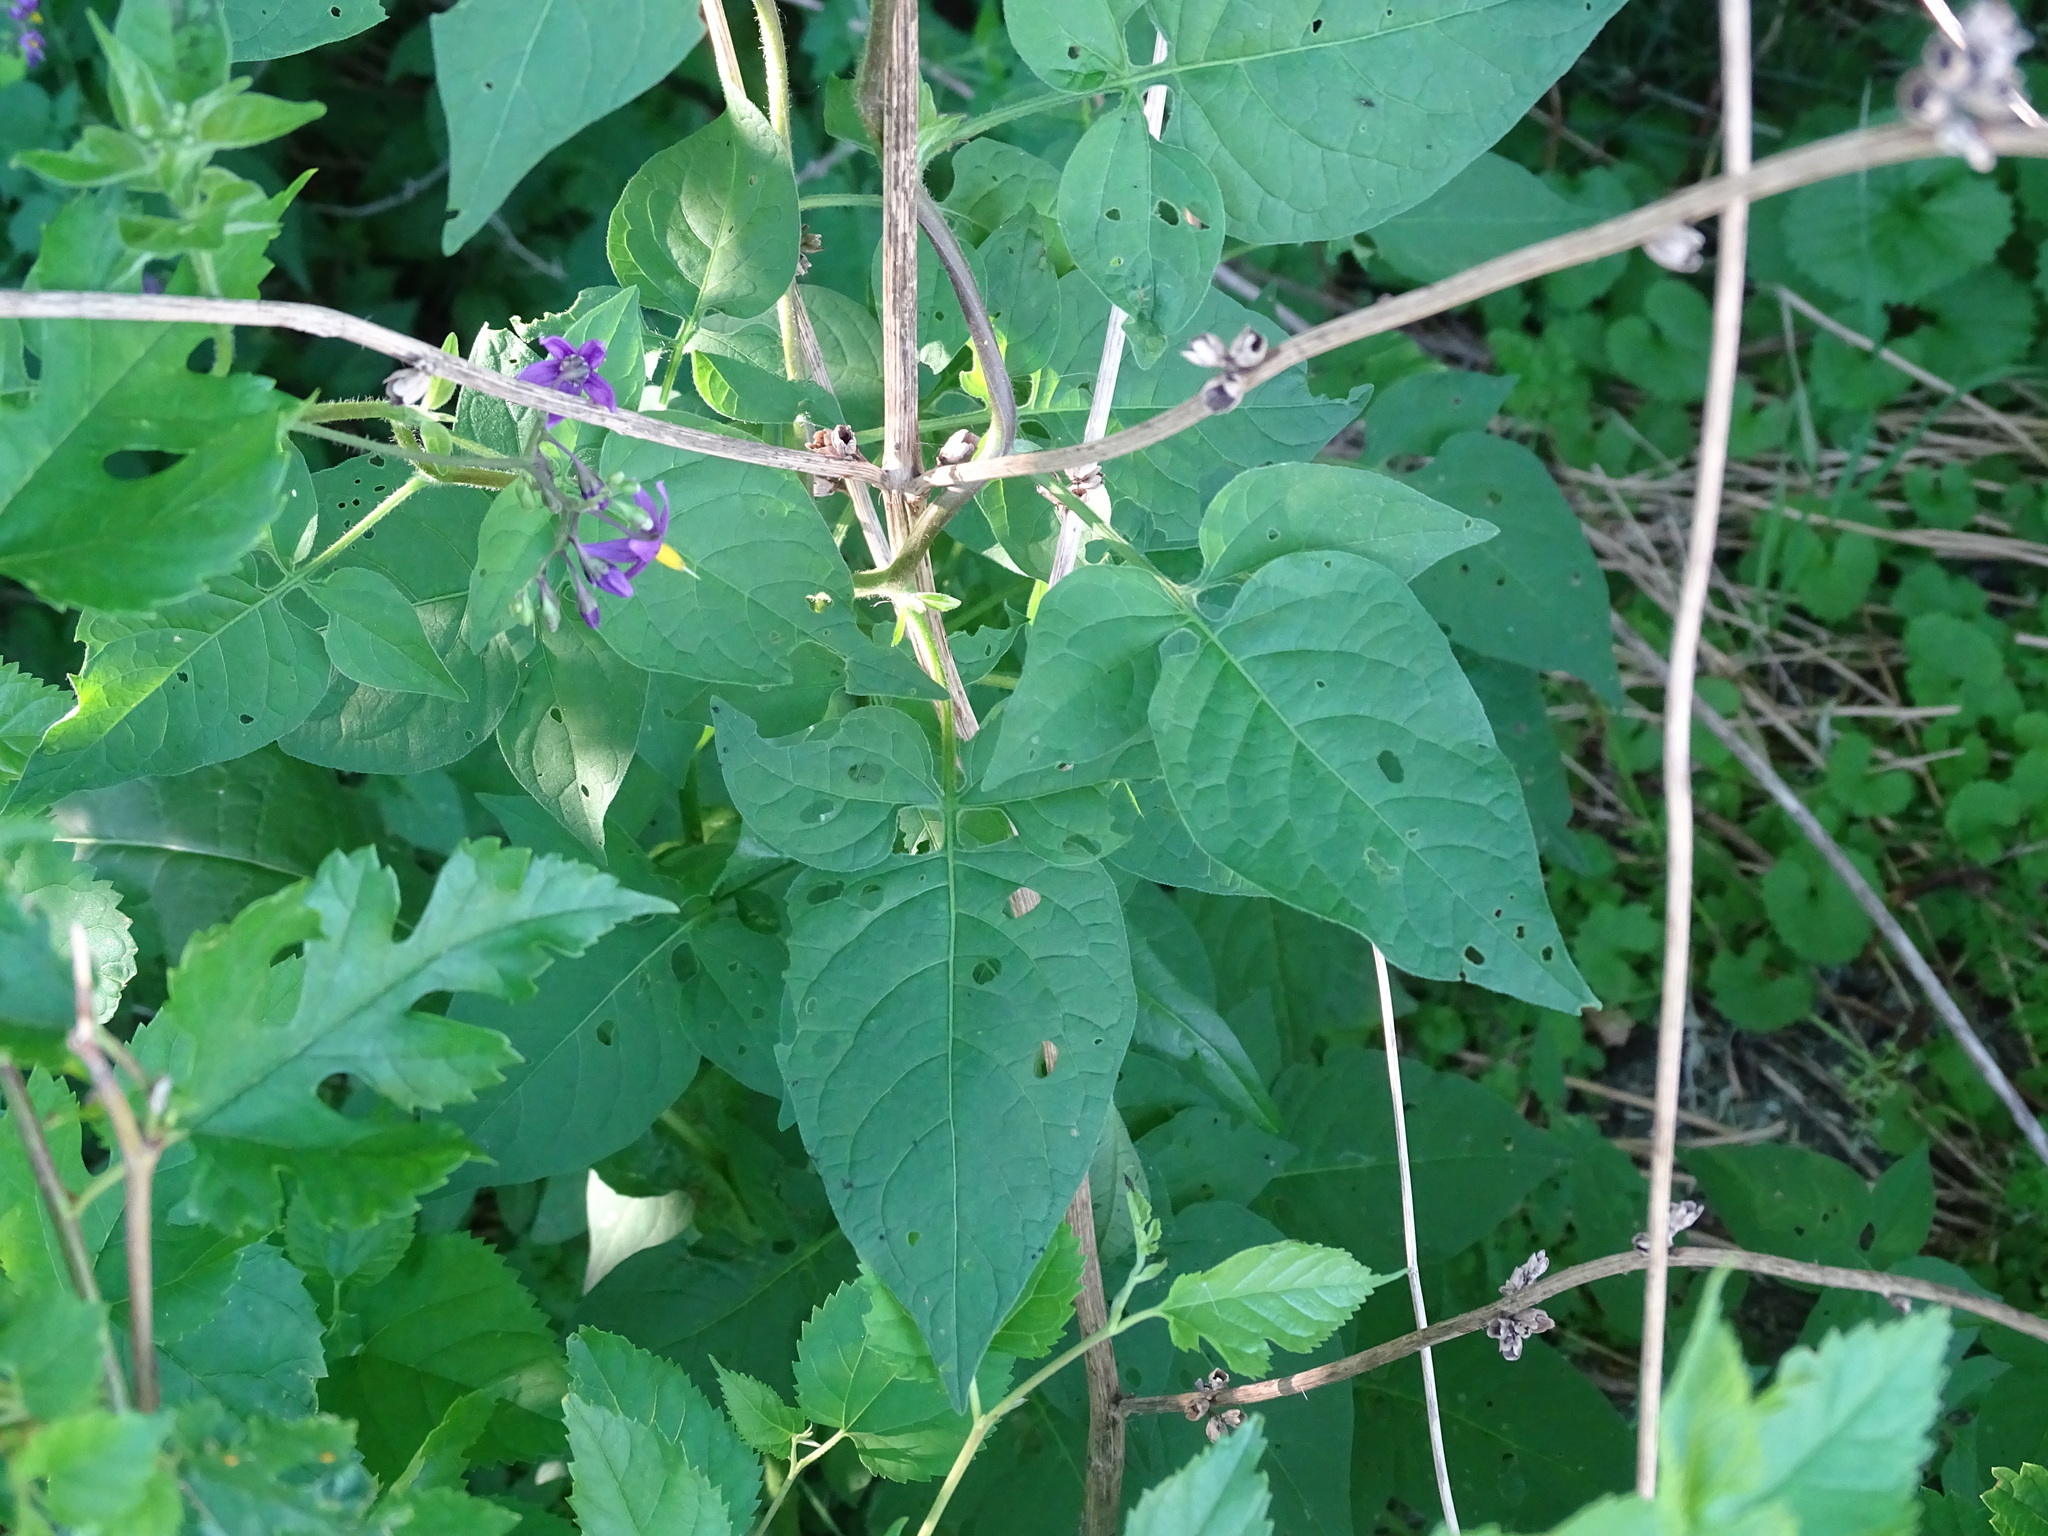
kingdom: Plantae
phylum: Tracheophyta
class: Magnoliopsida
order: Solanales
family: Solanaceae
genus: Solanum
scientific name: Solanum dulcamara
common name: Climbing nightshade
